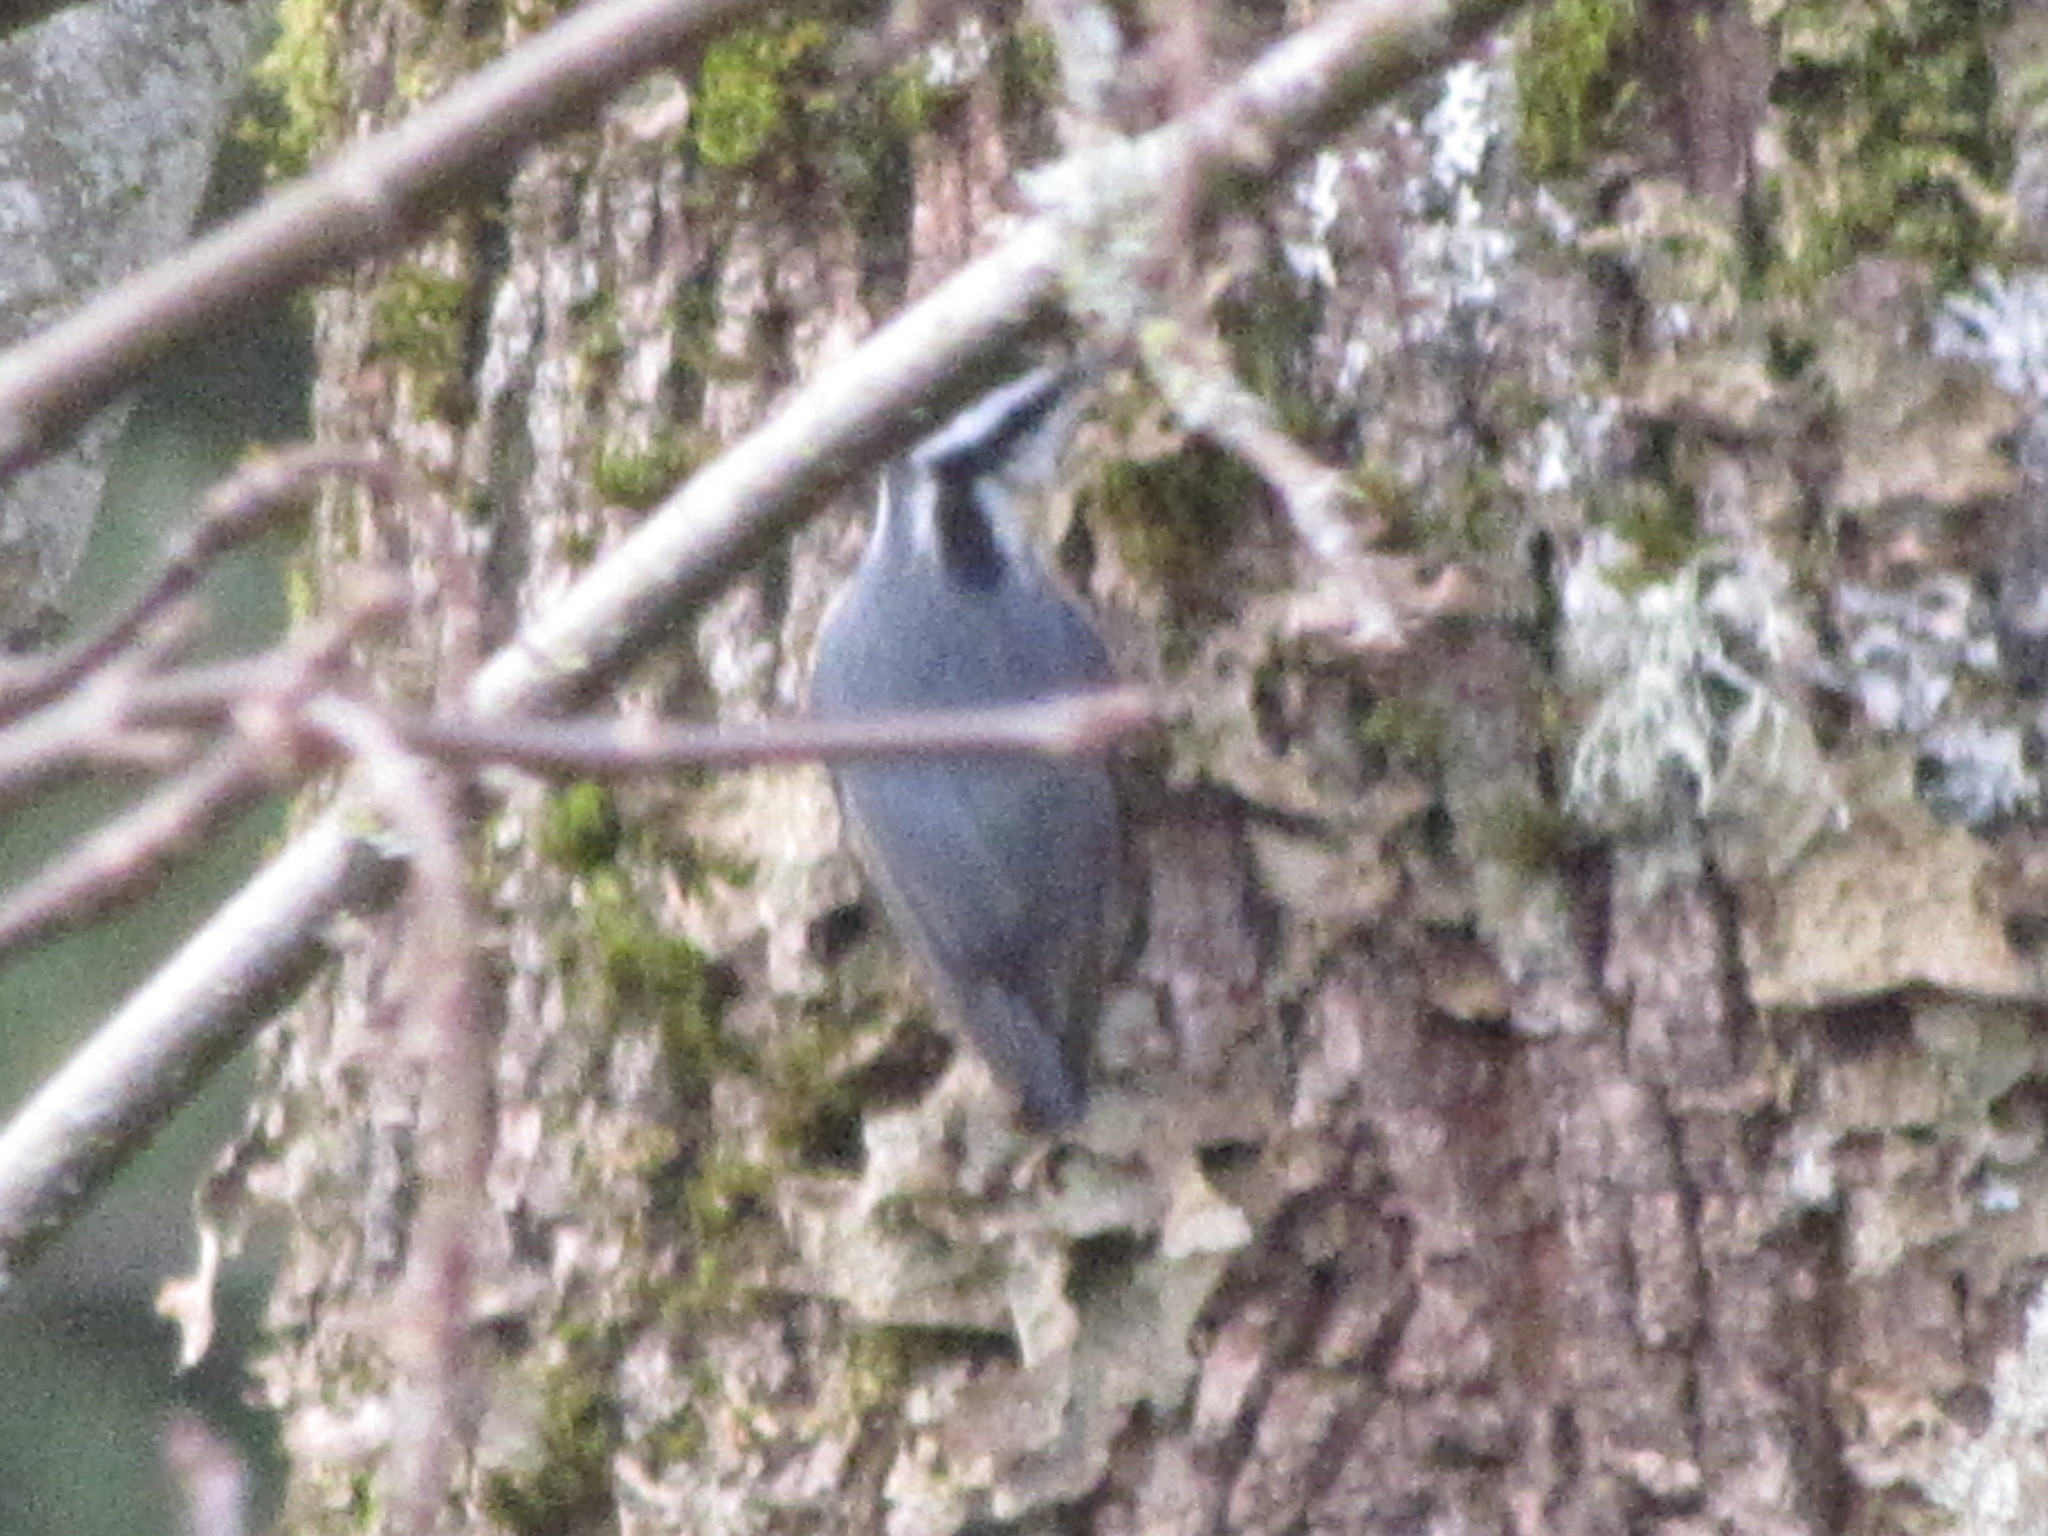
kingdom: Animalia
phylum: Chordata
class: Aves
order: Passeriformes
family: Sittidae
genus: Sitta
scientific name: Sitta canadensis
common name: Red-breasted nuthatch
